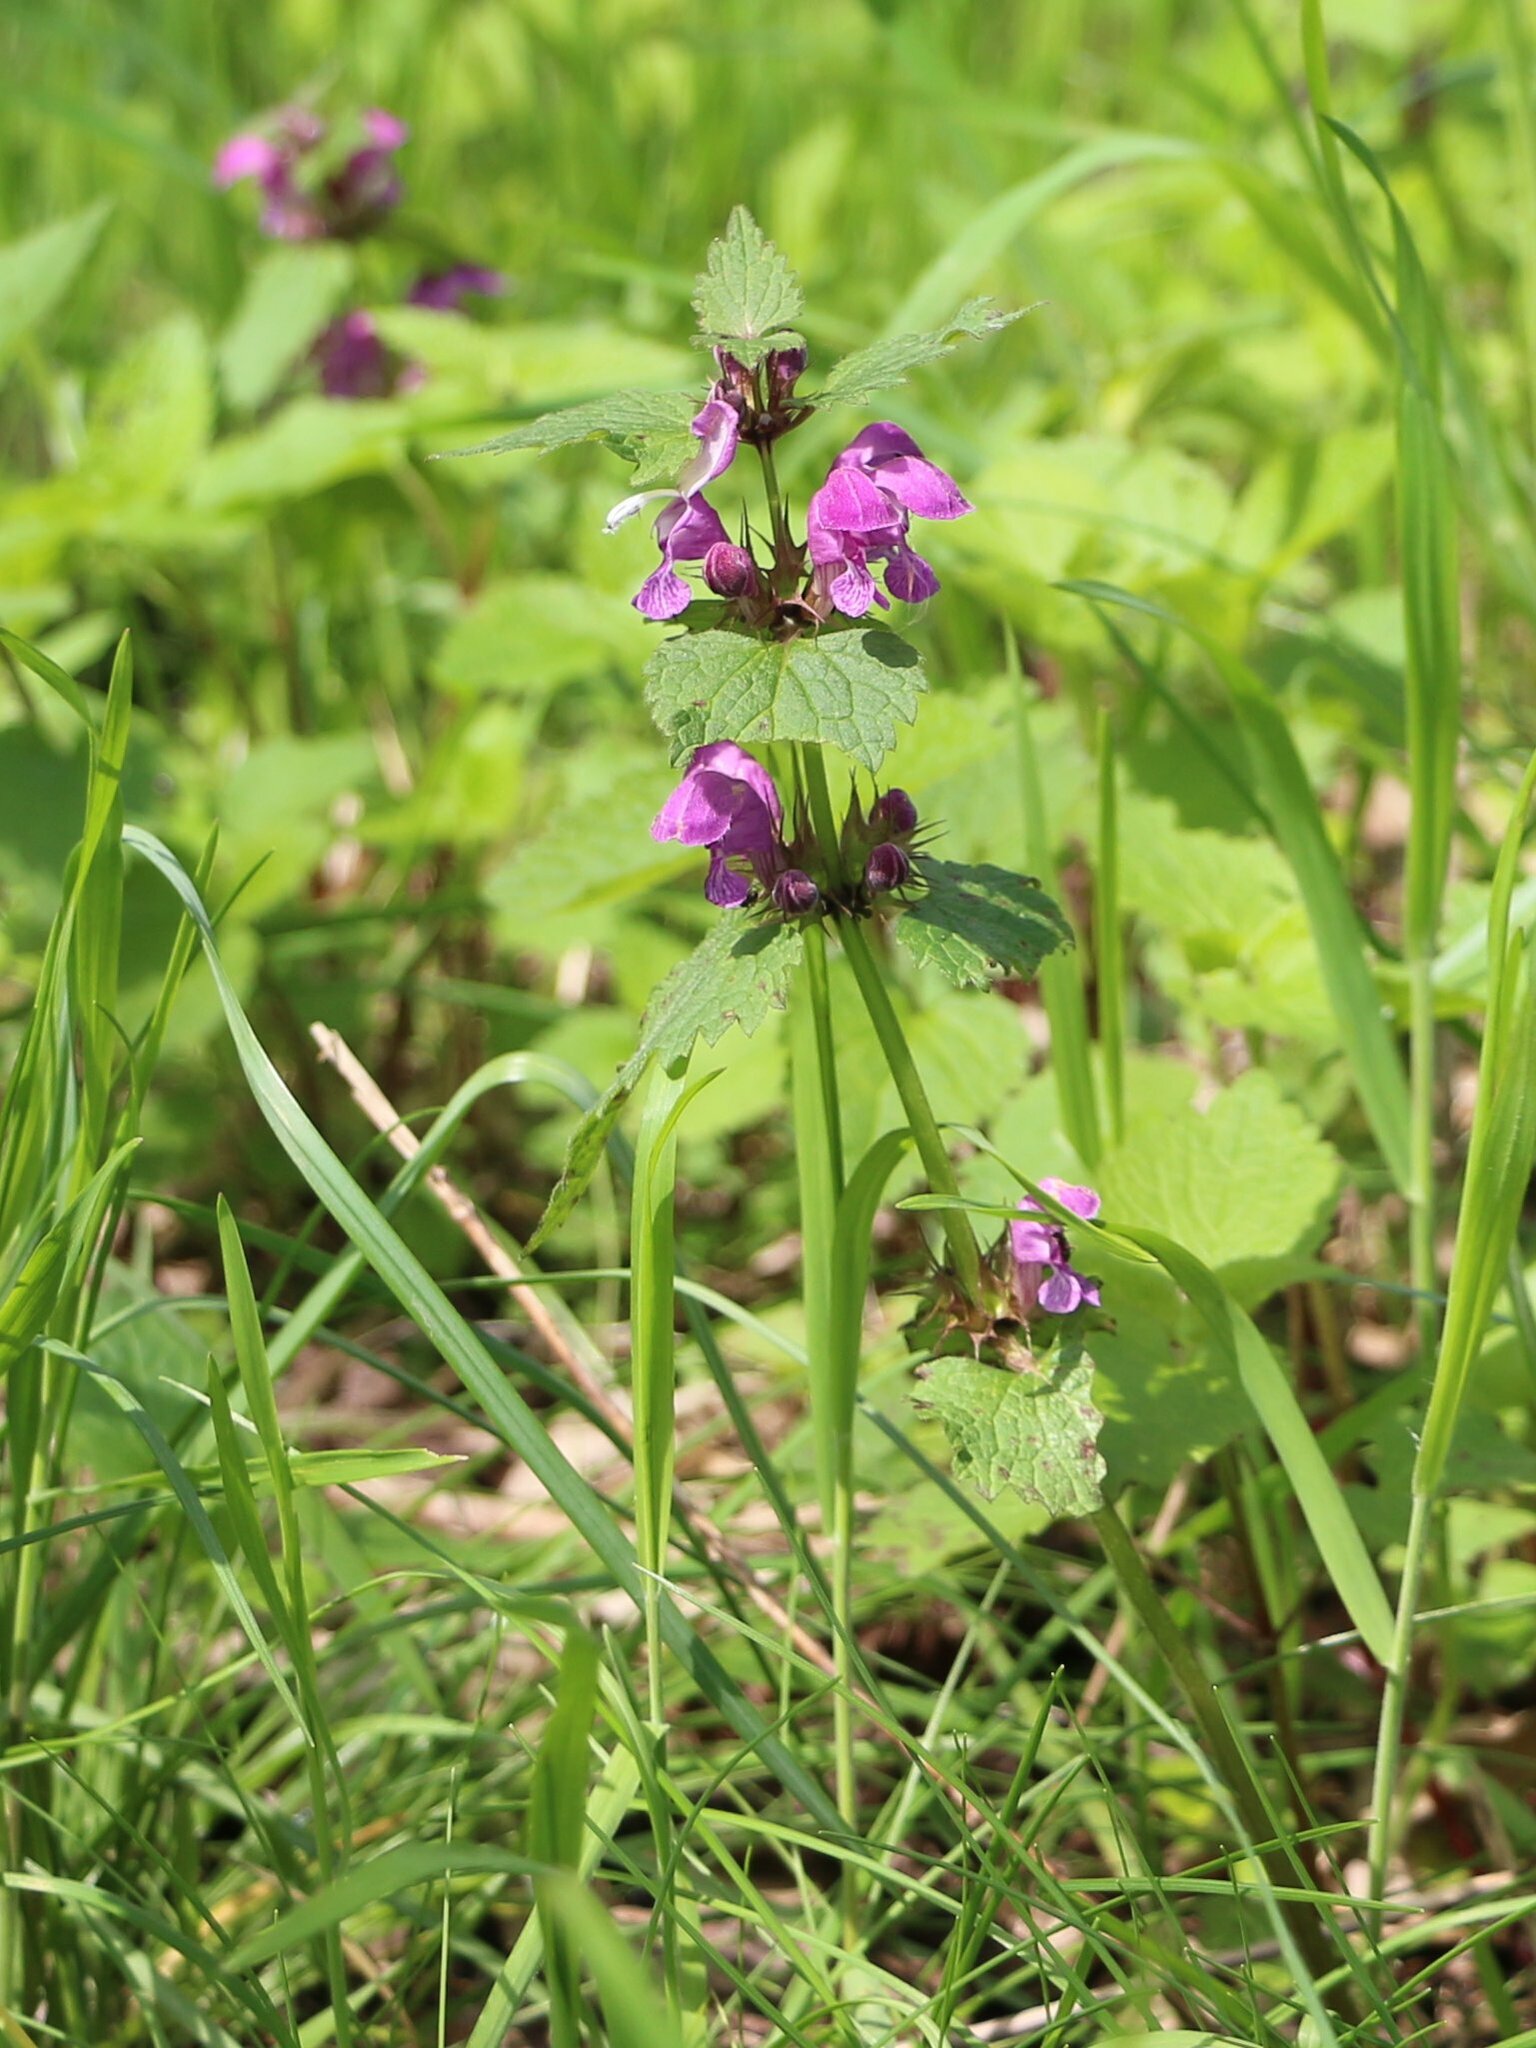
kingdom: Plantae
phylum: Tracheophyta
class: Magnoliopsida
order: Lamiales
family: Lamiaceae
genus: Lamium
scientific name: Lamium maculatum
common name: Spotted dead-nettle
